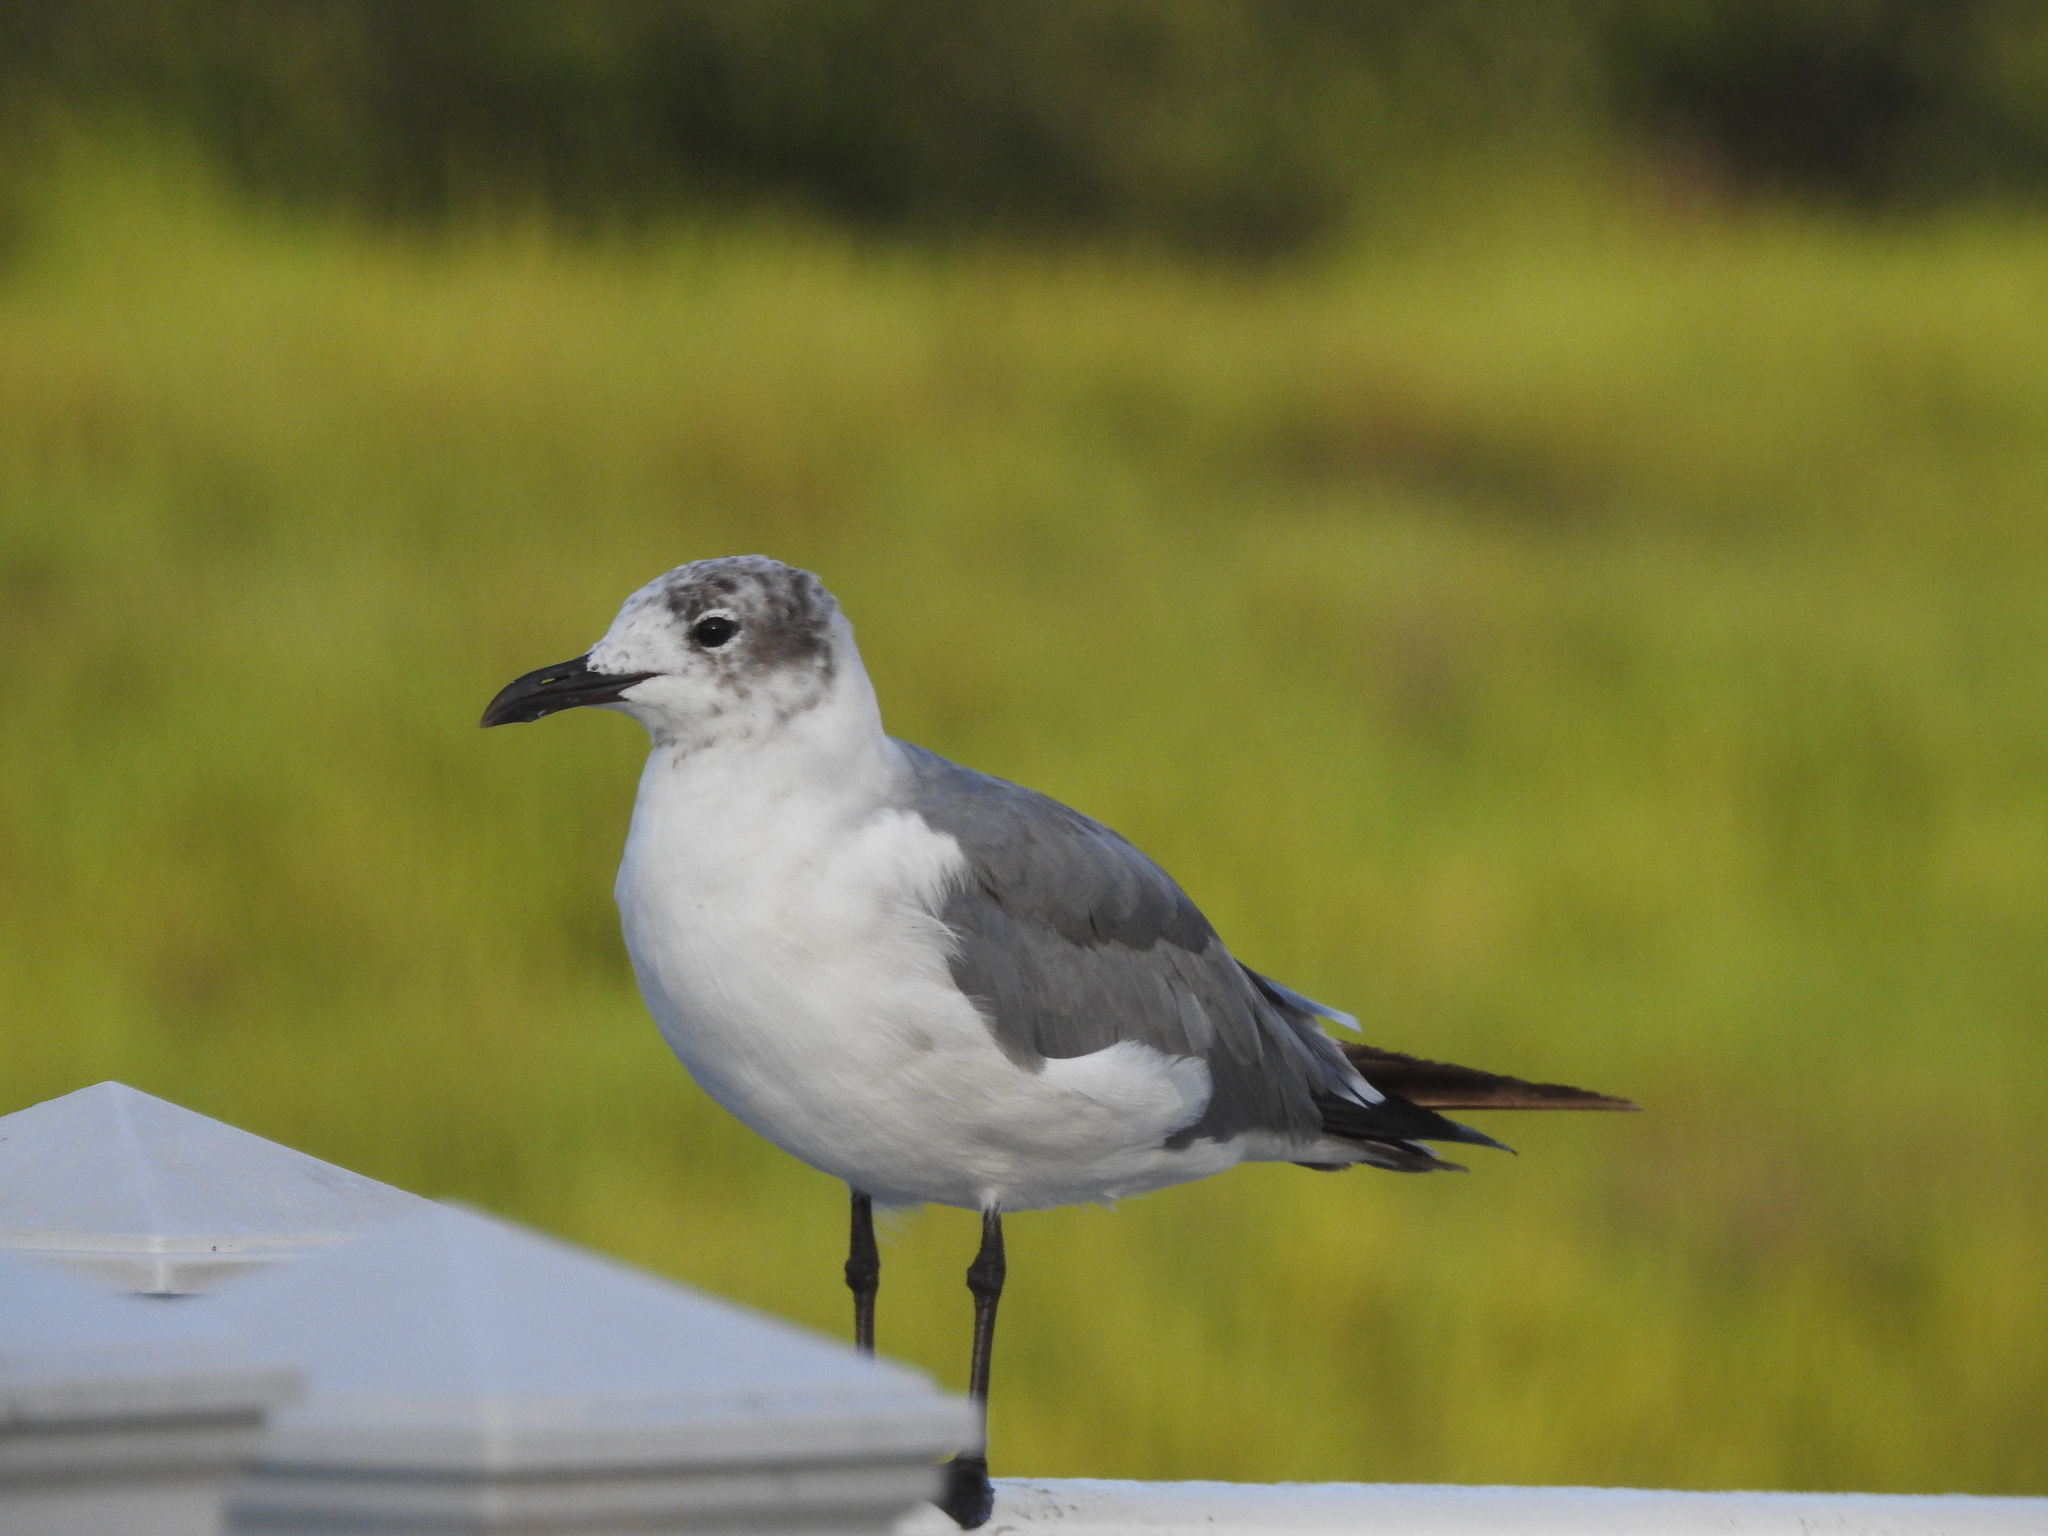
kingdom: Animalia
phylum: Chordata
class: Aves
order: Charadriiformes
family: Laridae
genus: Leucophaeus
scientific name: Leucophaeus atricilla
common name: Laughing gull
